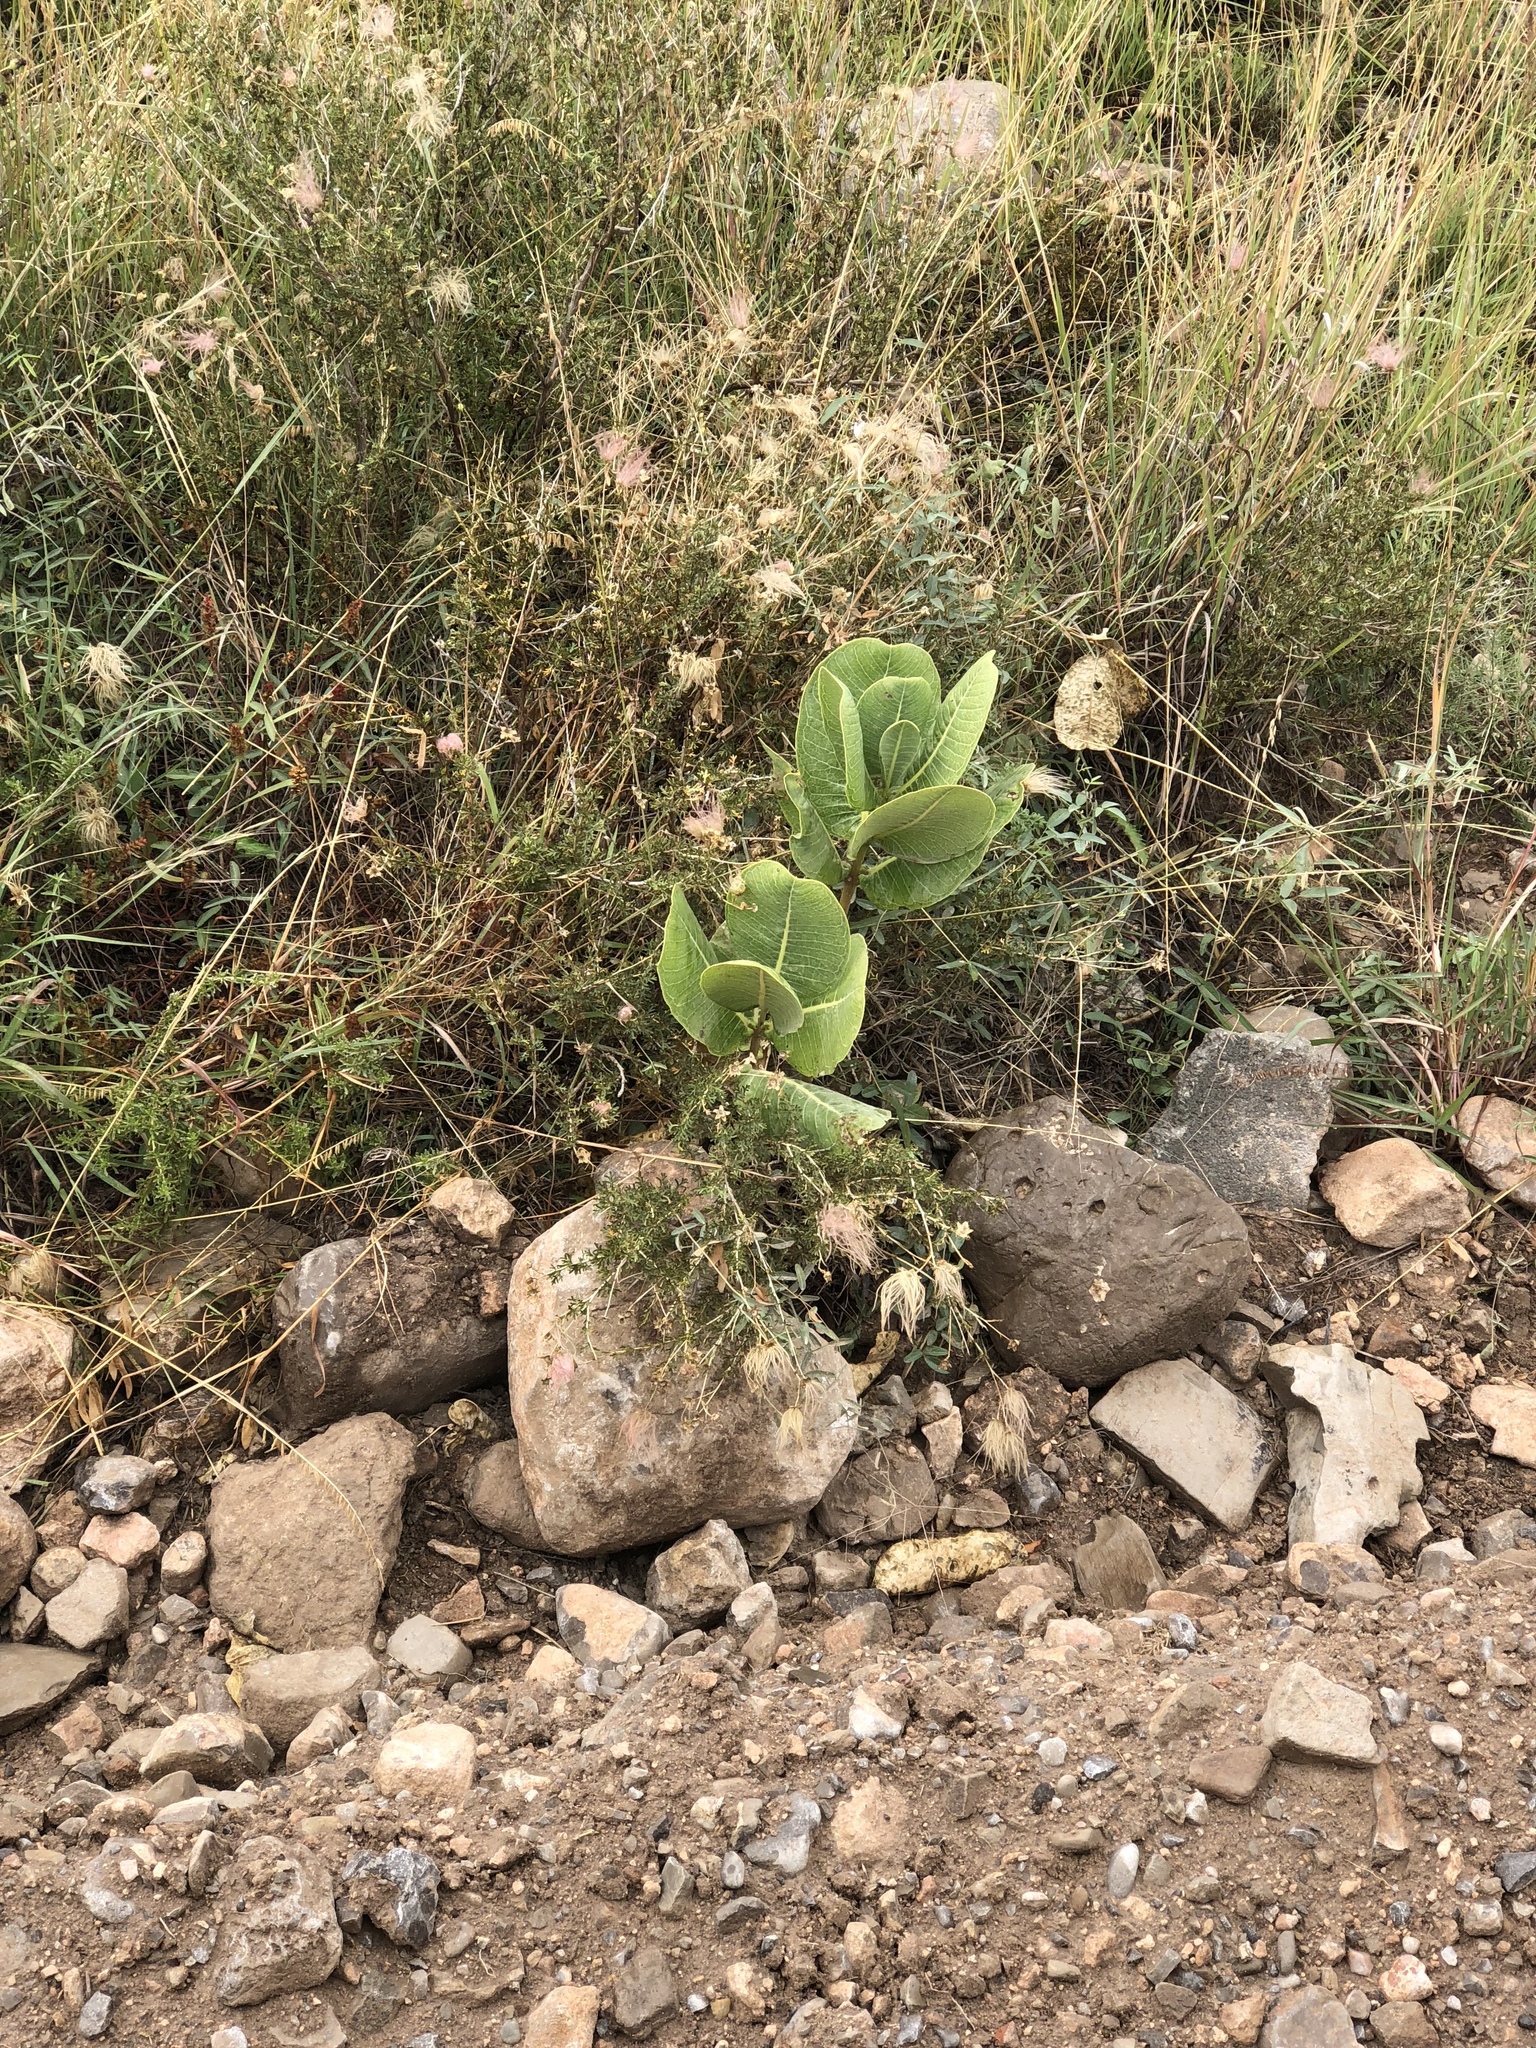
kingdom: Plantae
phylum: Tracheophyta
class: Magnoliopsida
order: Gentianales
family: Apocynaceae
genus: Asclepias
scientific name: Asclepias latifolia
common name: Broadleaf milkweed
